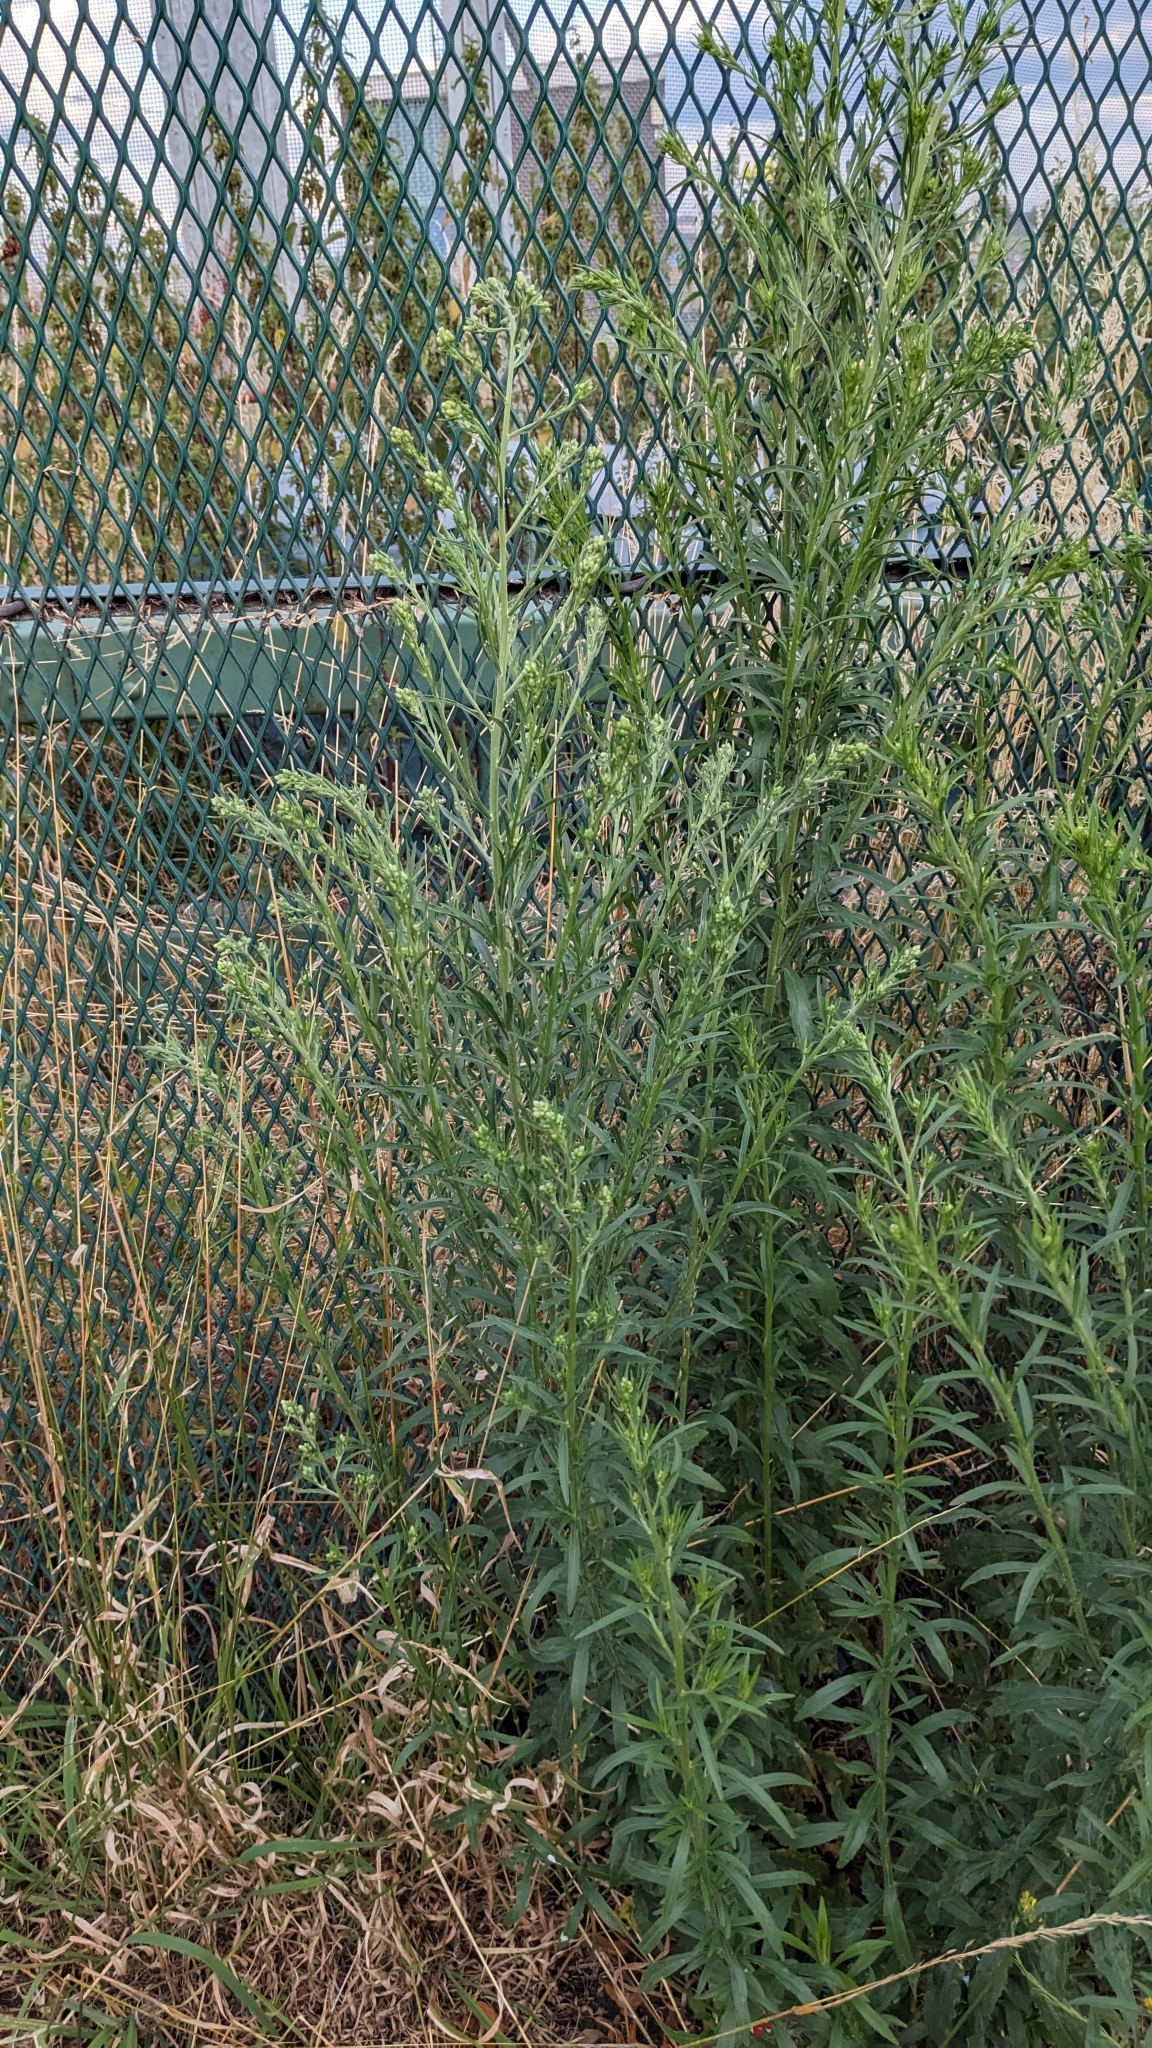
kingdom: Plantae
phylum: Tracheophyta
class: Magnoliopsida
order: Asterales
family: Asteraceae
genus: Erigeron
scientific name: Erigeron sumatrensis
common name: Daisy
